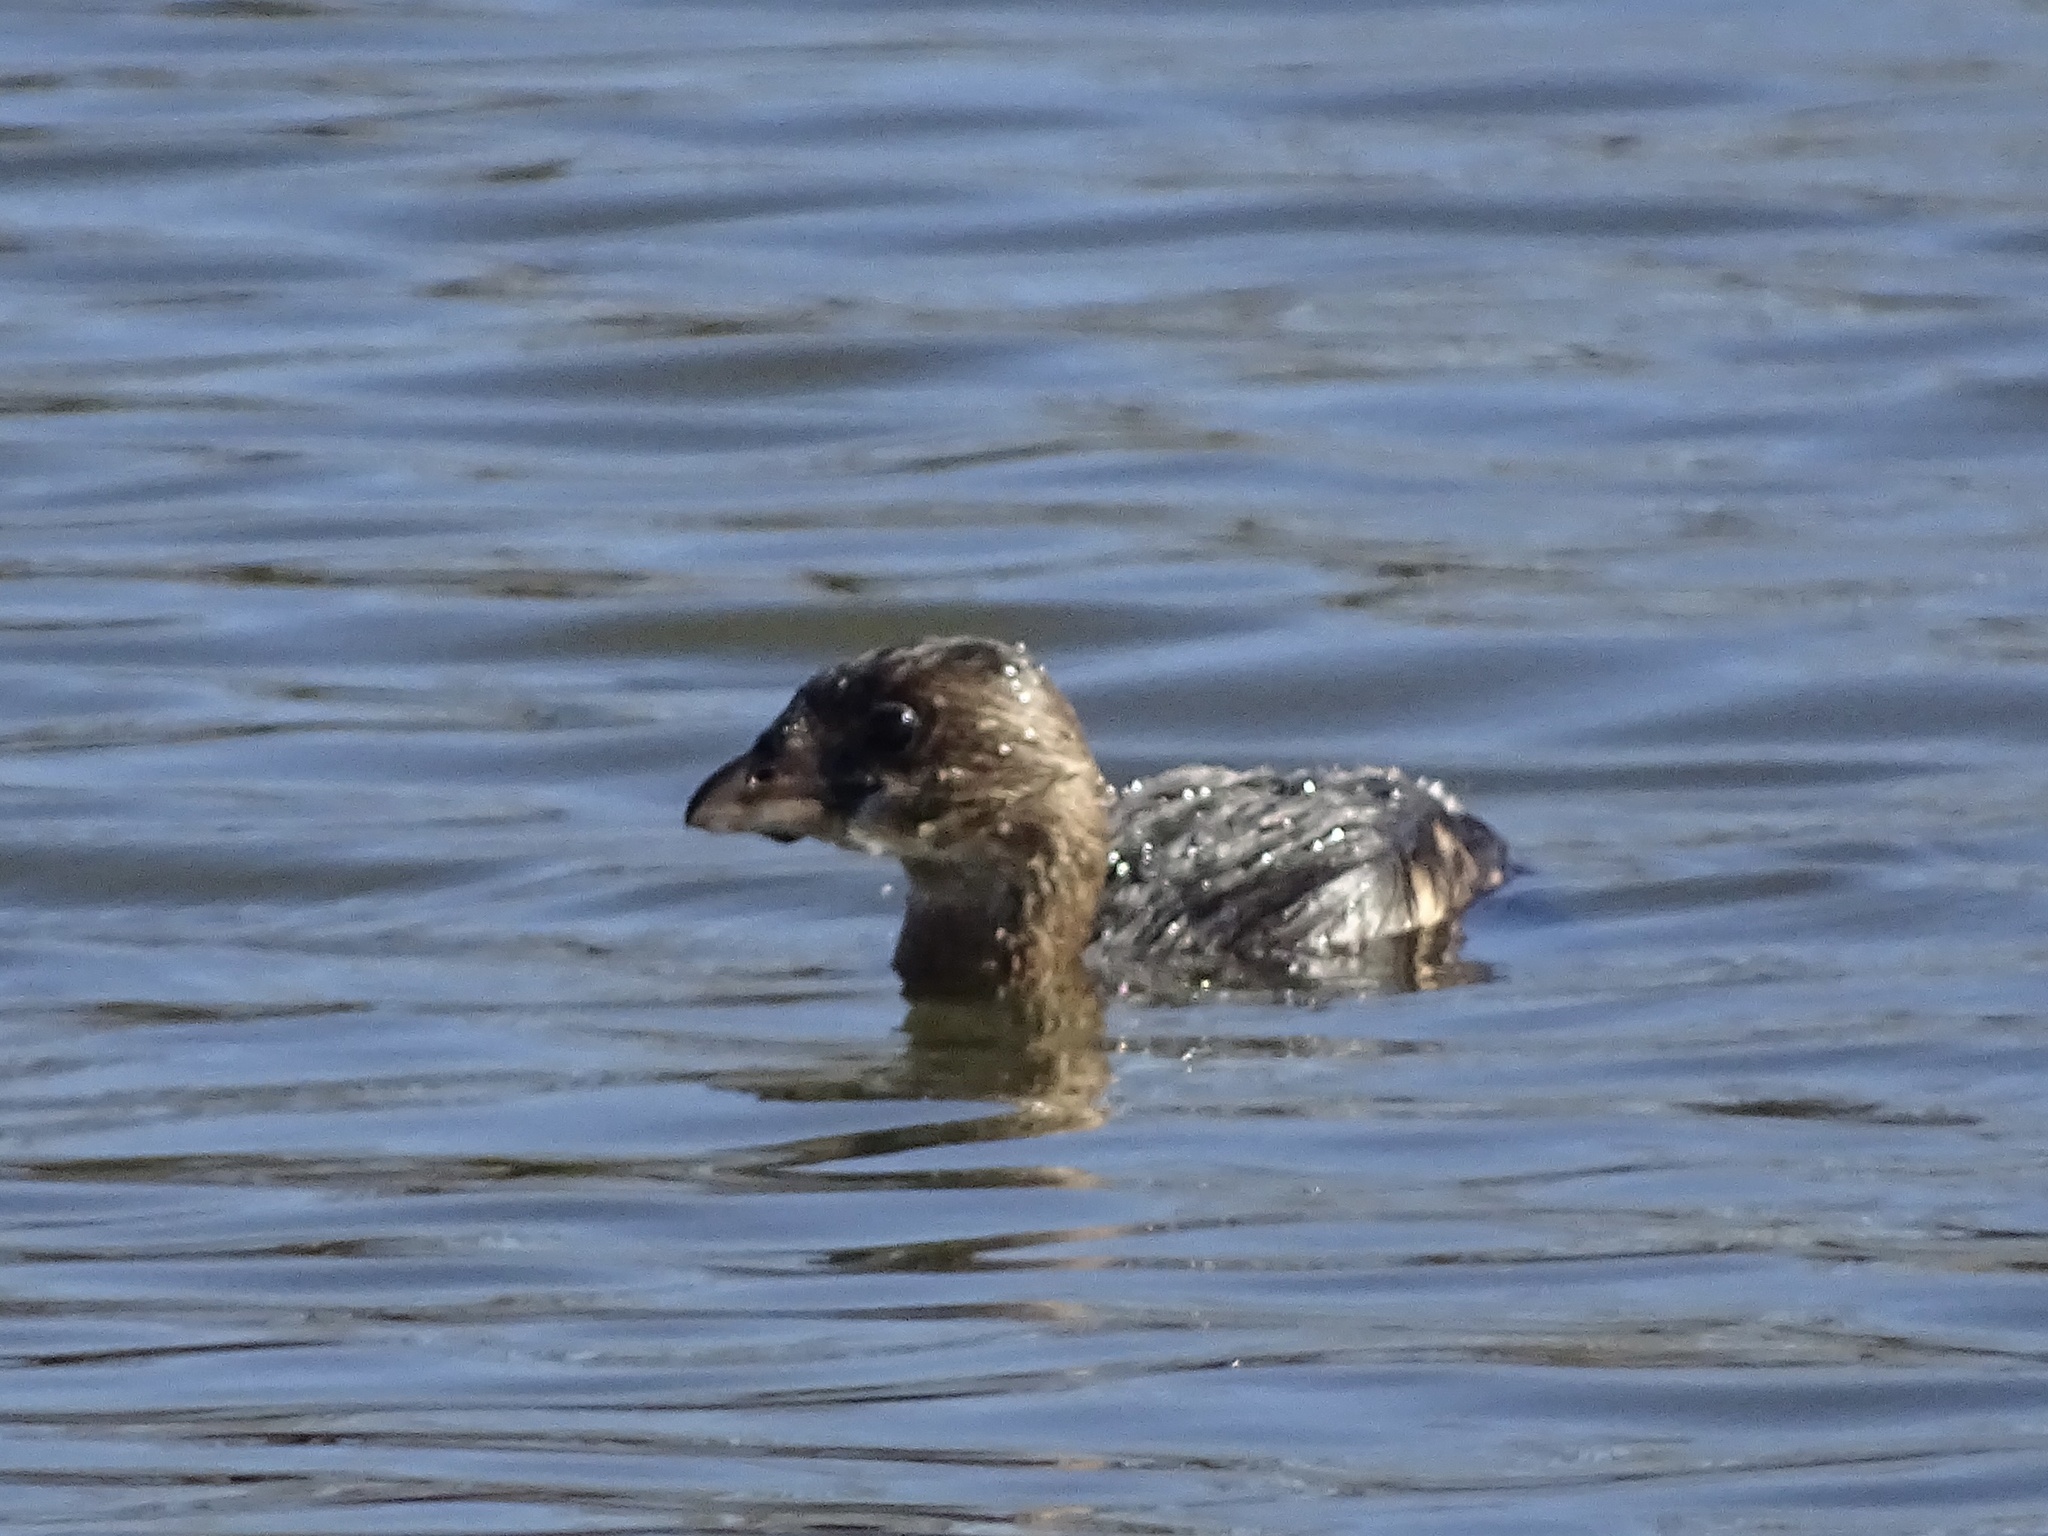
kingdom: Animalia
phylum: Chordata
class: Aves
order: Podicipediformes
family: Podicipedidae
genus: Podilymbus
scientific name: Podilymbus podiceps
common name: Pied-billed grebe
